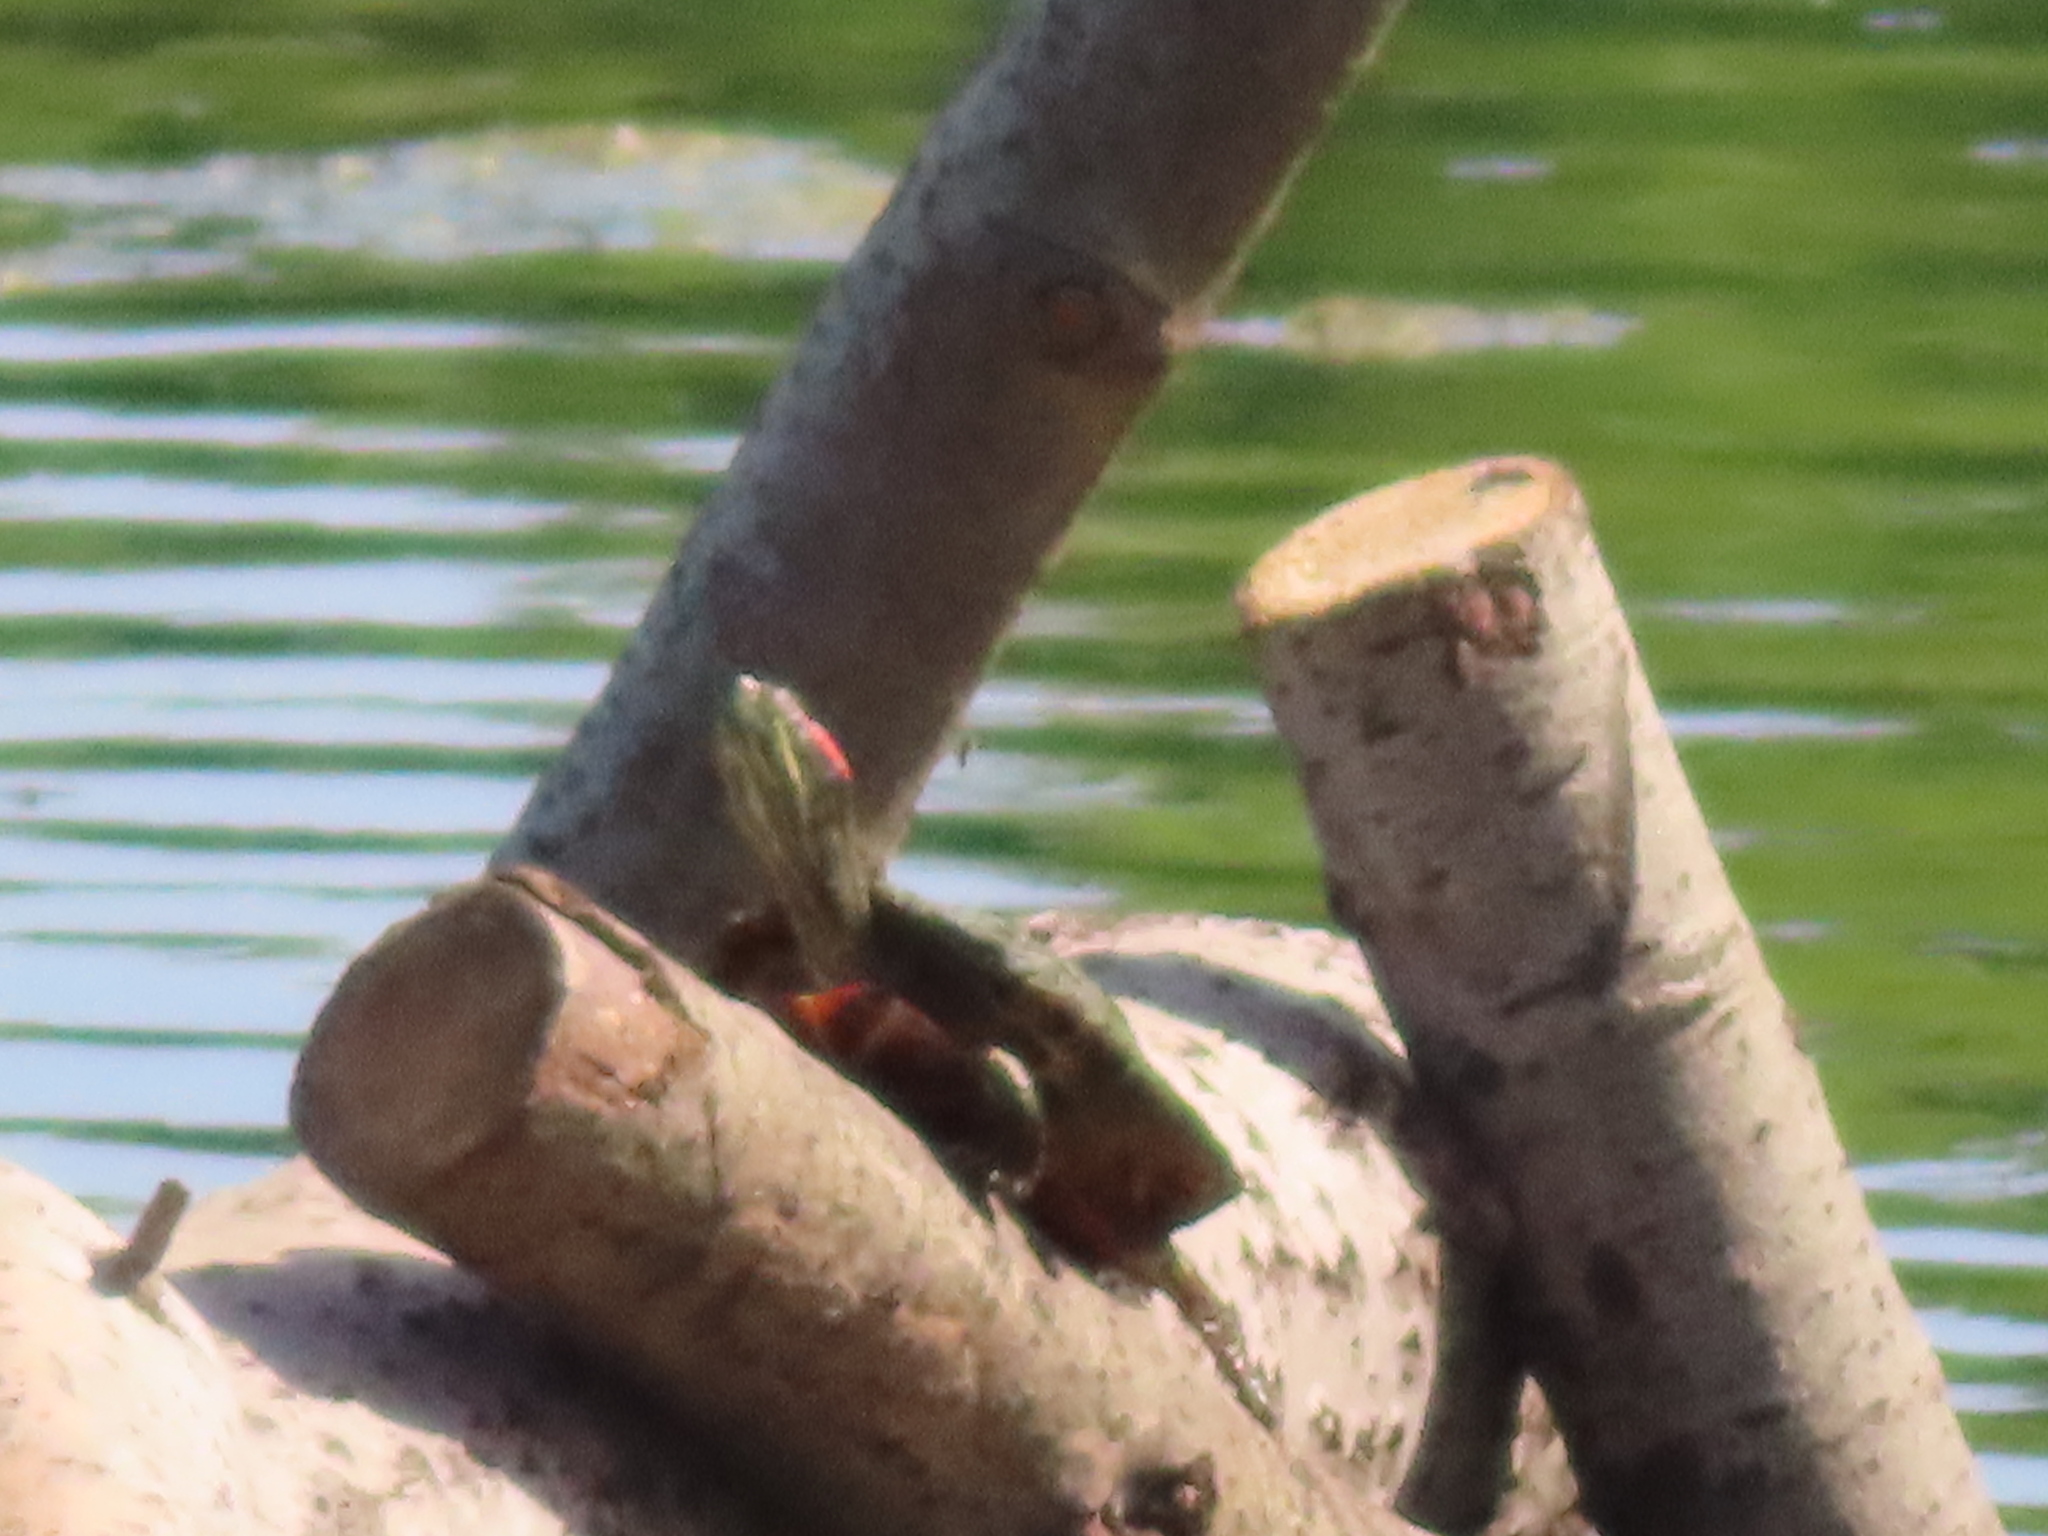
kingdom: Animalia
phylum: Chordata
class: Testudines
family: Emydidae
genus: Trachemys
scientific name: Trachemys scripta
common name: Slider
